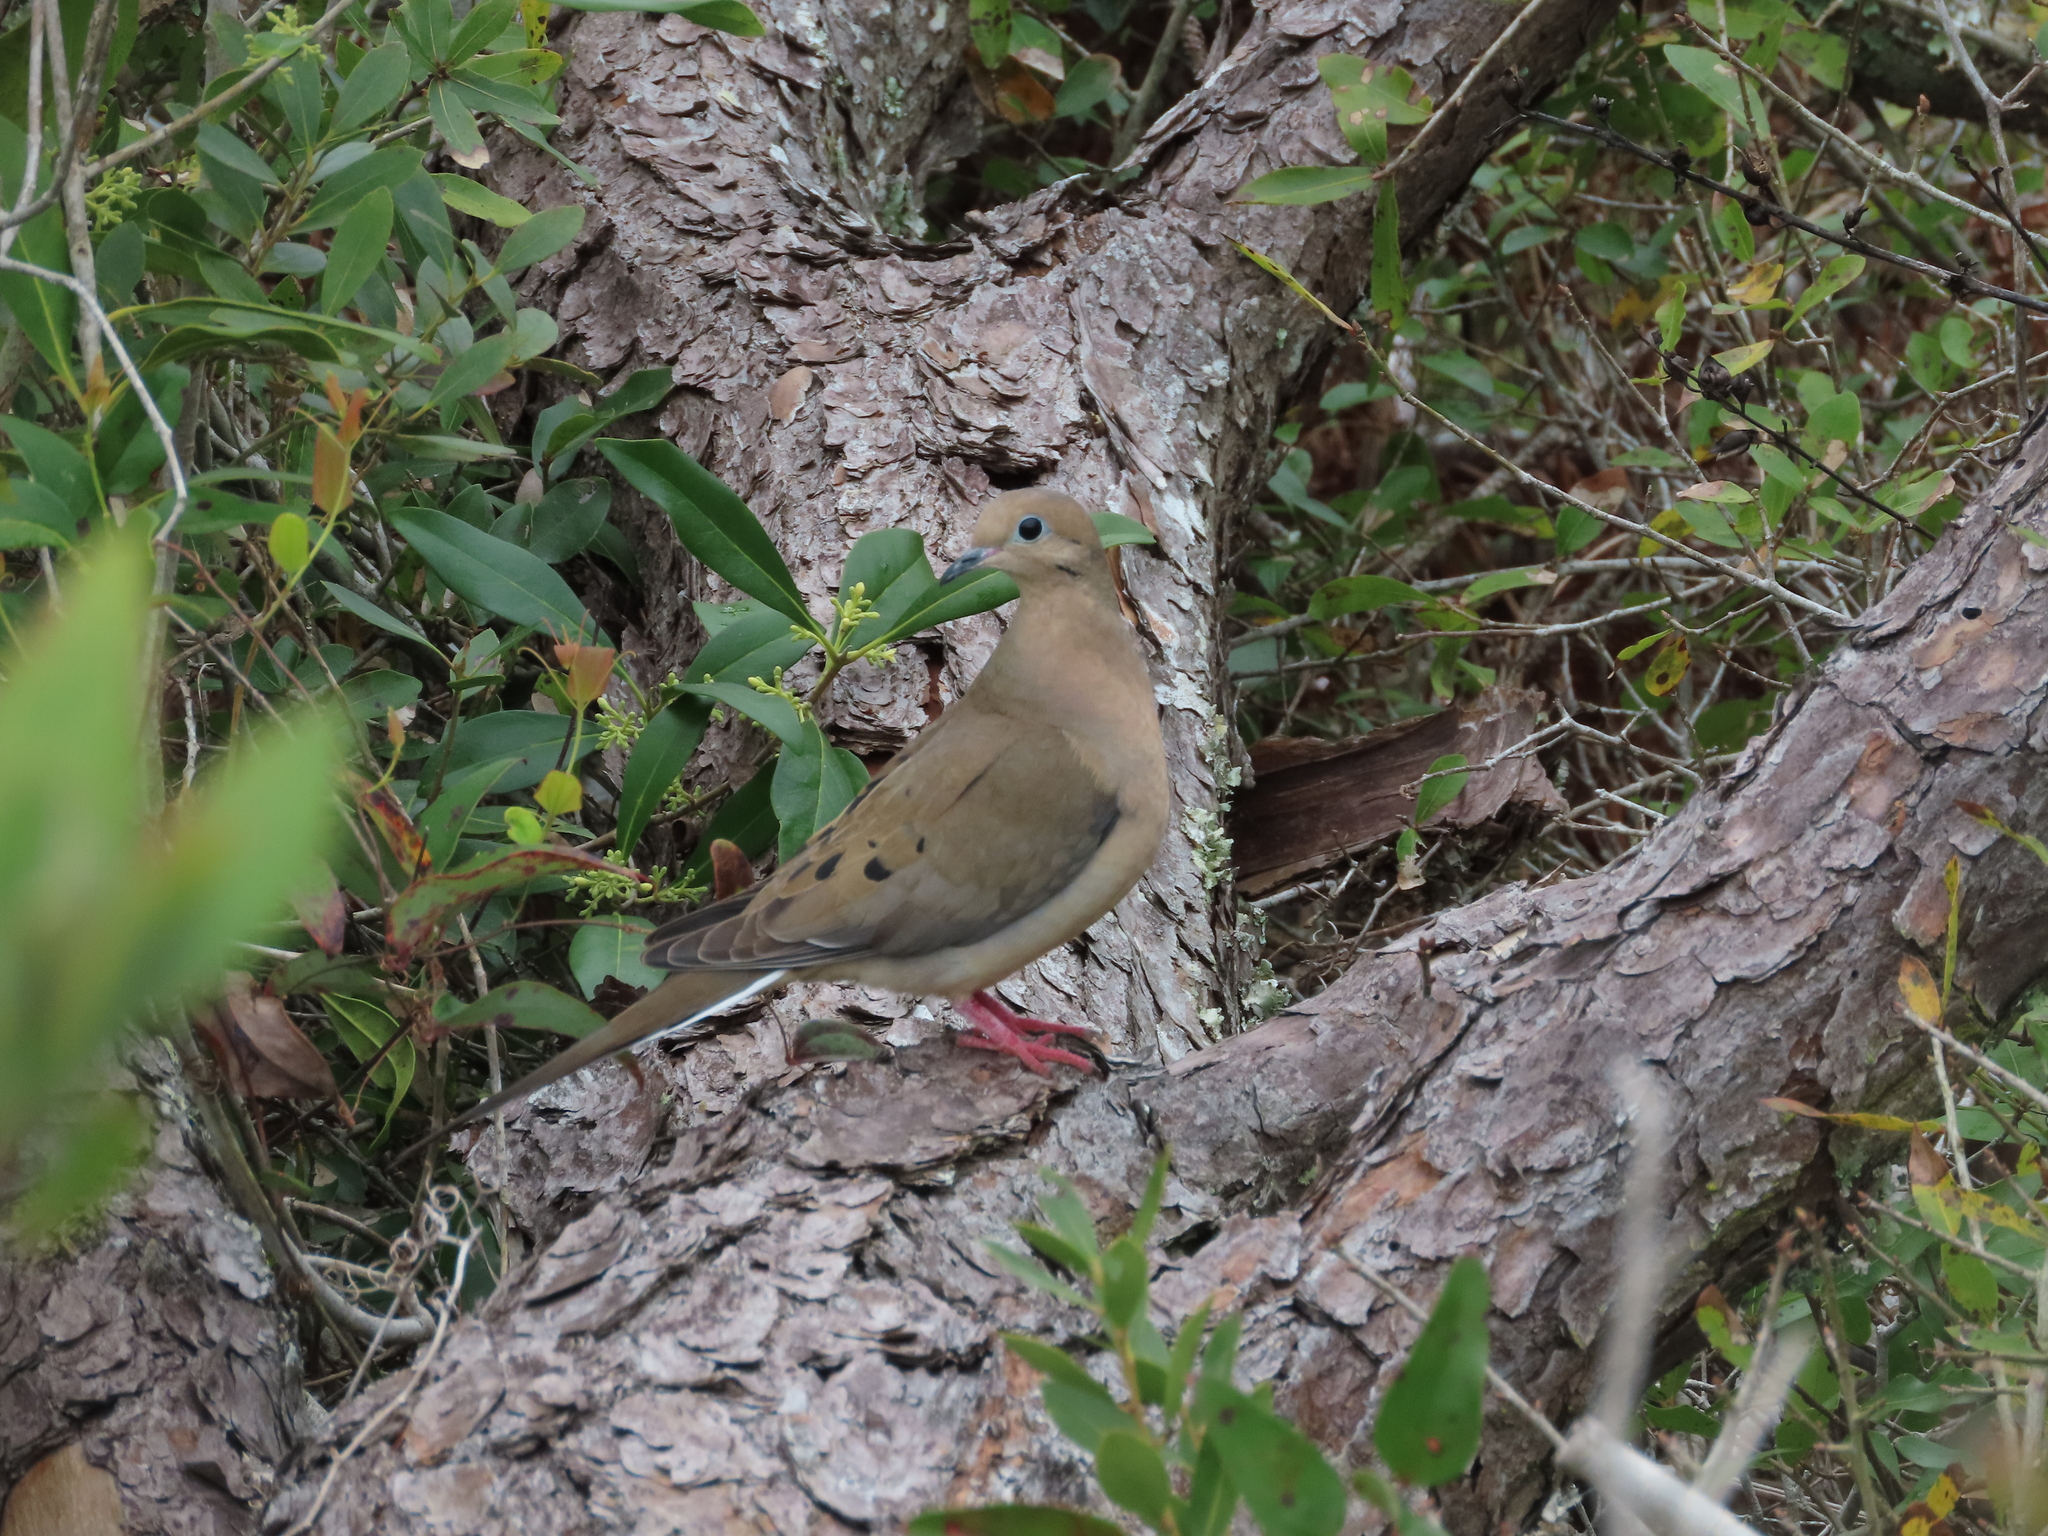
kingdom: Animalia
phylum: Chordata
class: Aves
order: Columbiformes
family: Columbidae
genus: Zenaida
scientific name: Zenaida macroura
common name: Mourning dove
